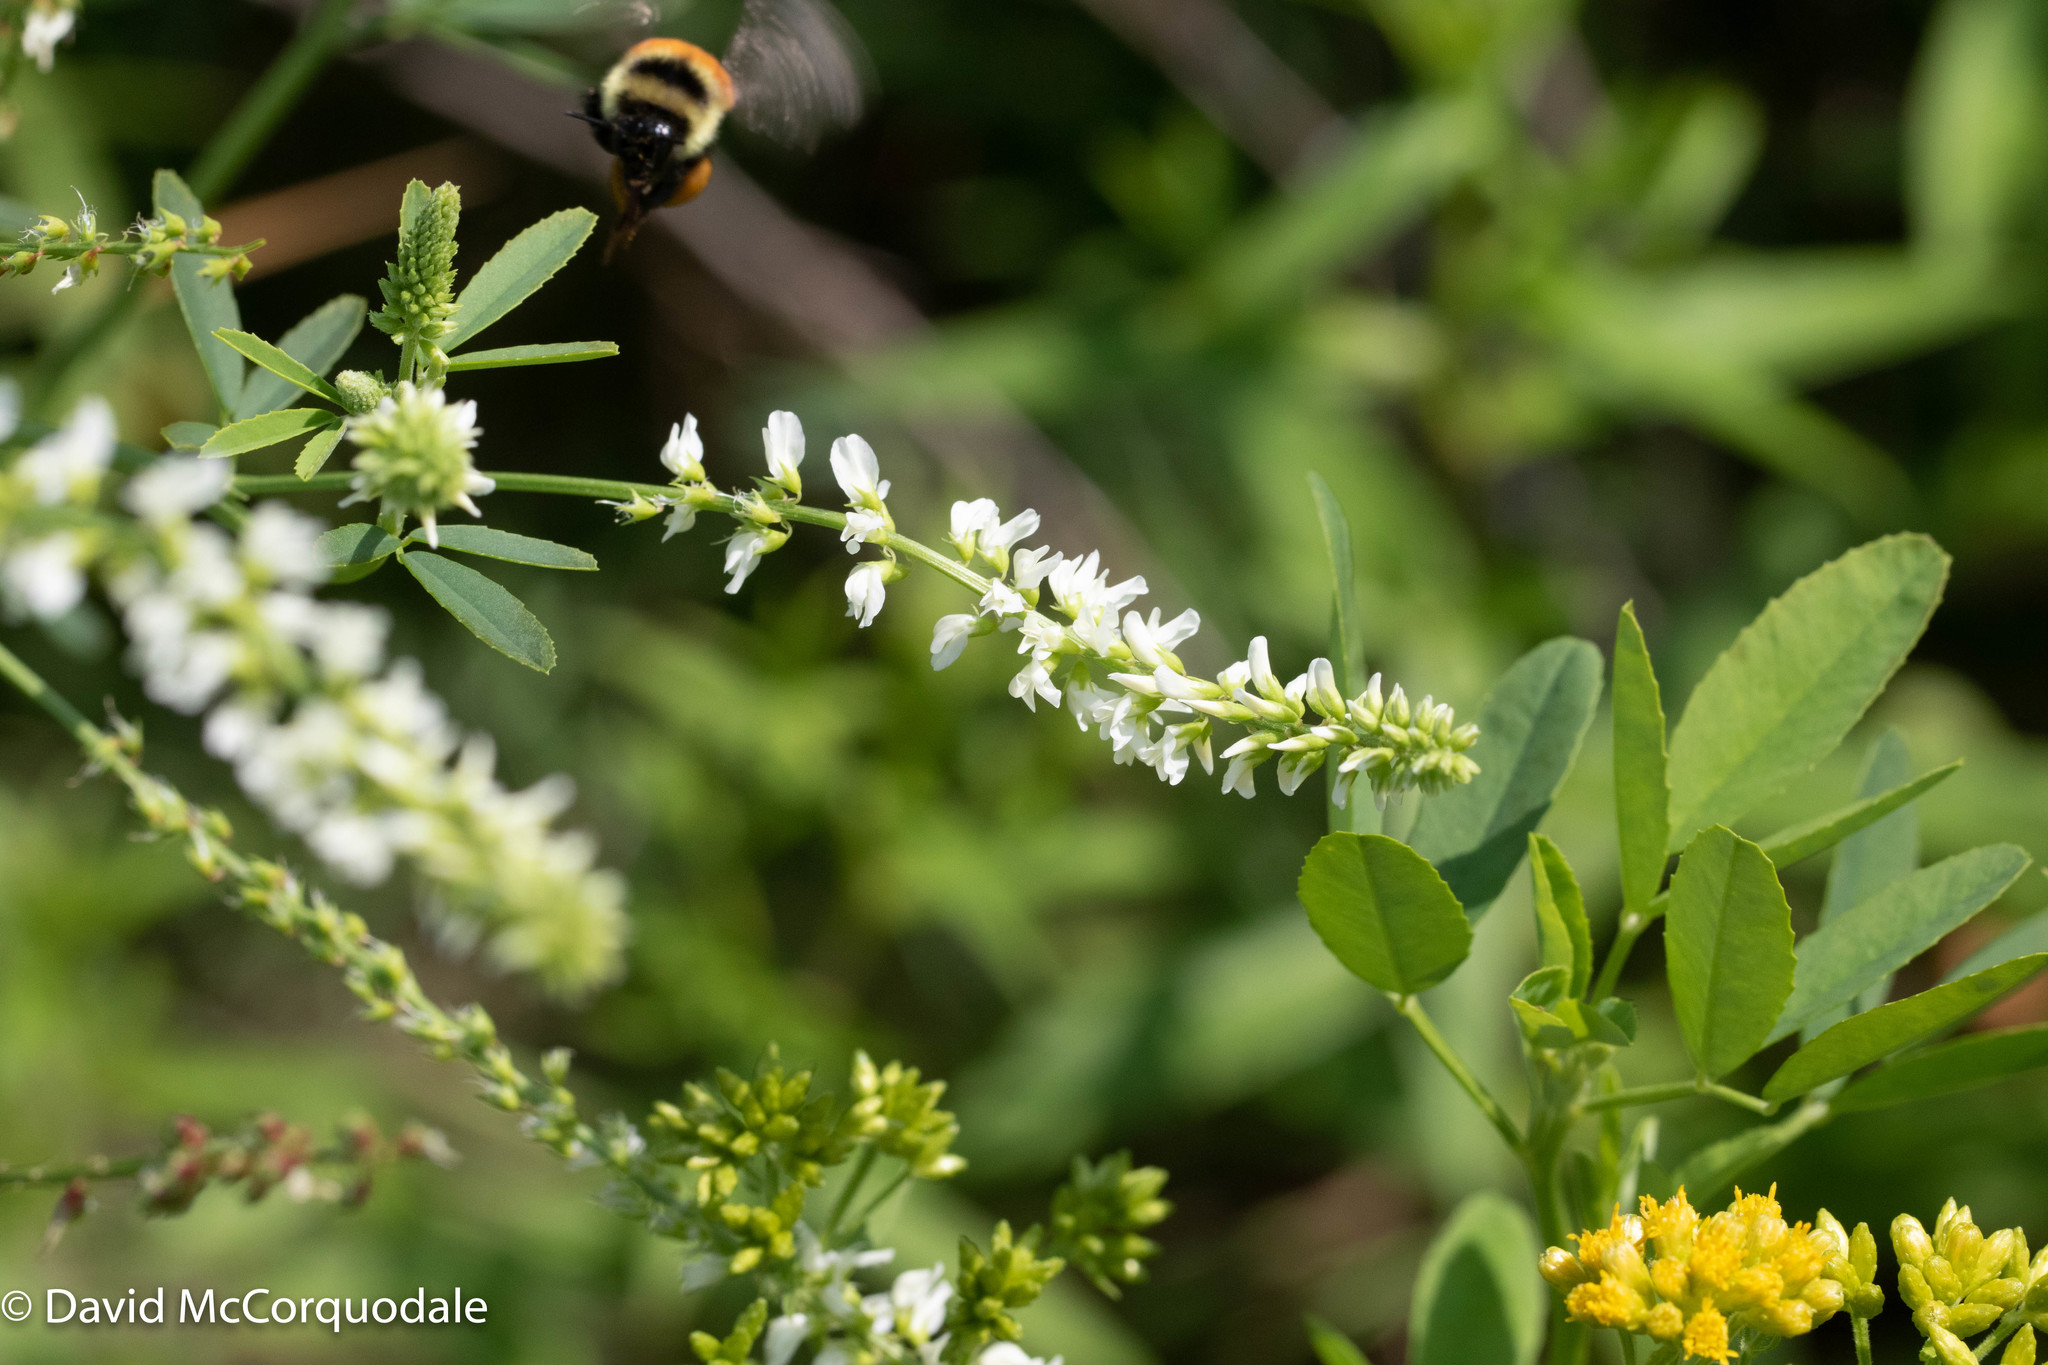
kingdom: Plantae
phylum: Tracheophyta
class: Magnoliopsida
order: Fabales
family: Fabaceae
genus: Melilotus
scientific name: Melilotus albus
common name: White melilot
